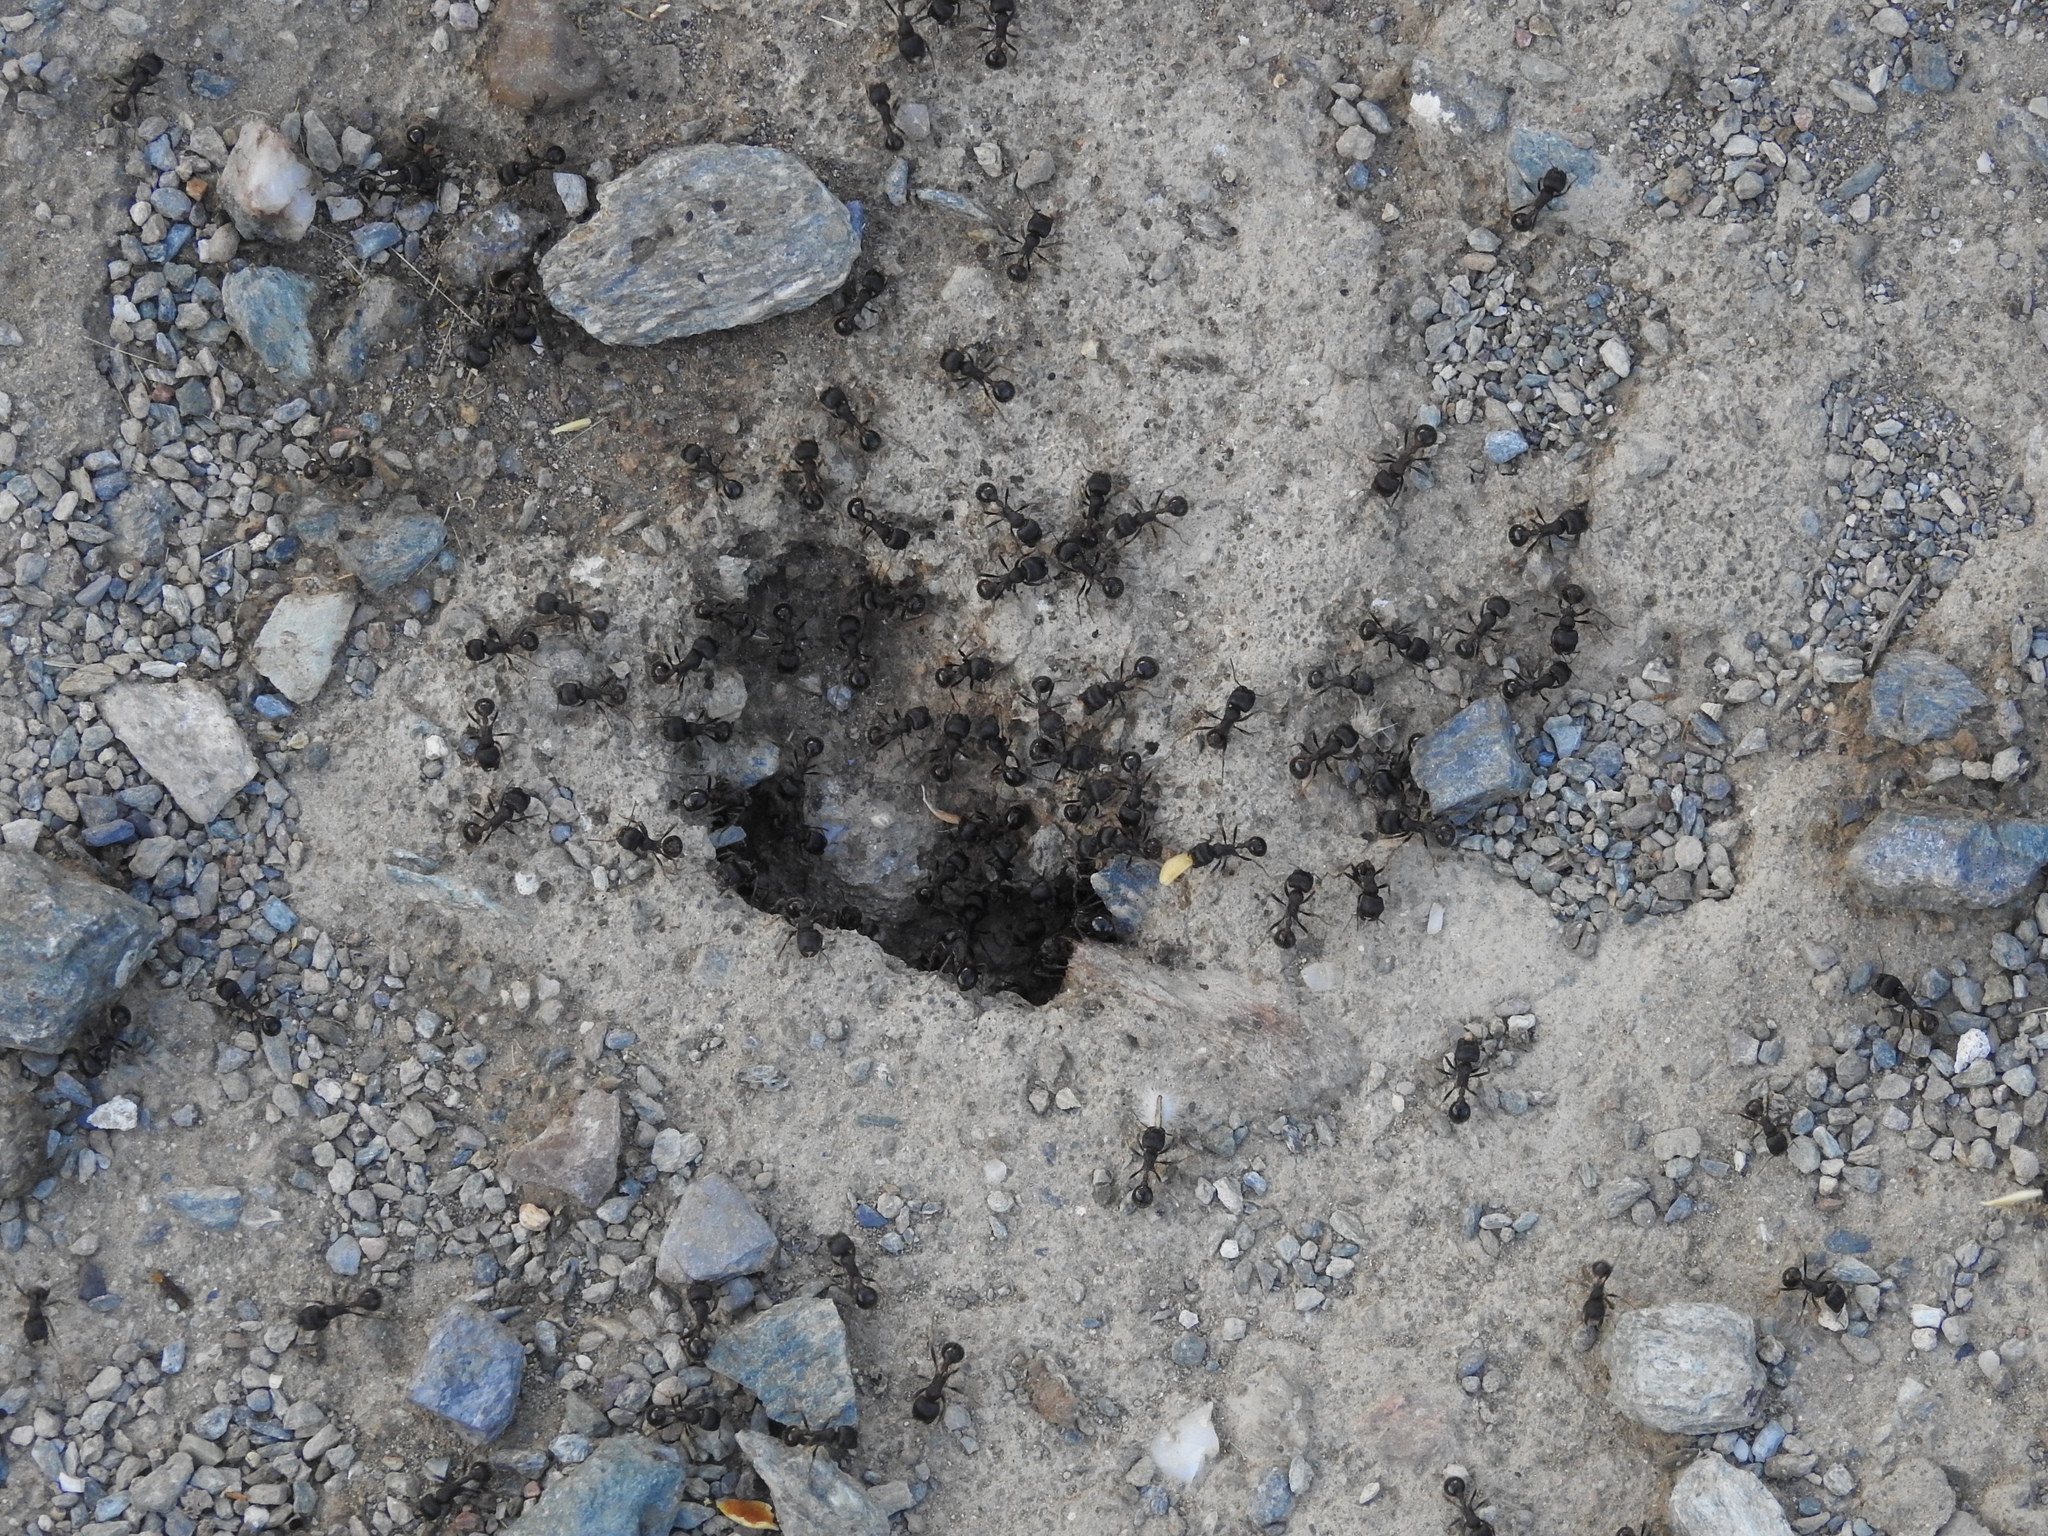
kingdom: Animalia
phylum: Arthropoda
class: Insecta
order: Hymenoptera
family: Formicidae
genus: Pogonomyrmex
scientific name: Pogonomyrmex rugosus
